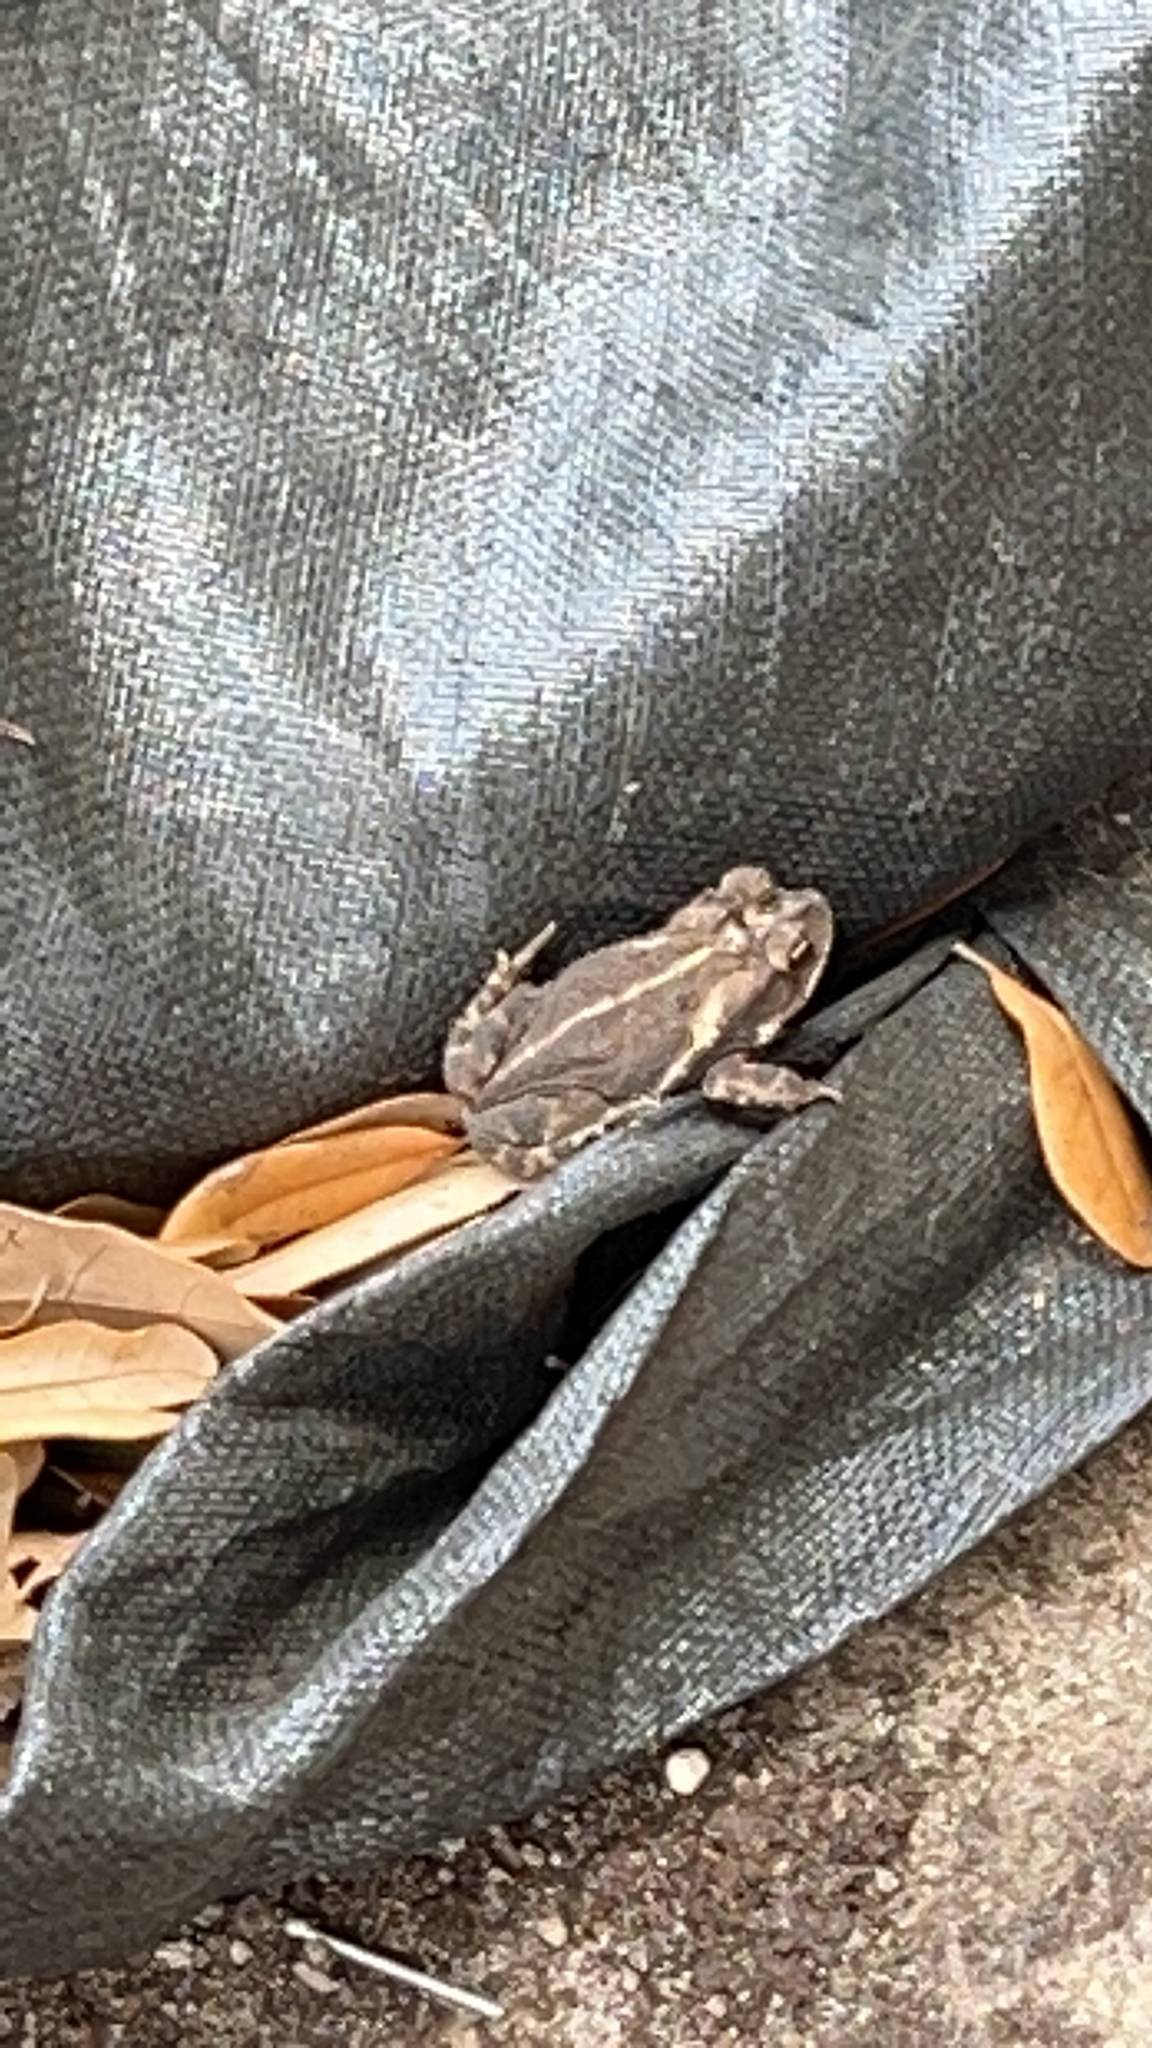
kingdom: Animalia
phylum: Chordata
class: Amphibia
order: Anura
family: Bufonidae
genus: Incilius
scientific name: Incilius nebulifer
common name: Gulf coast toad
